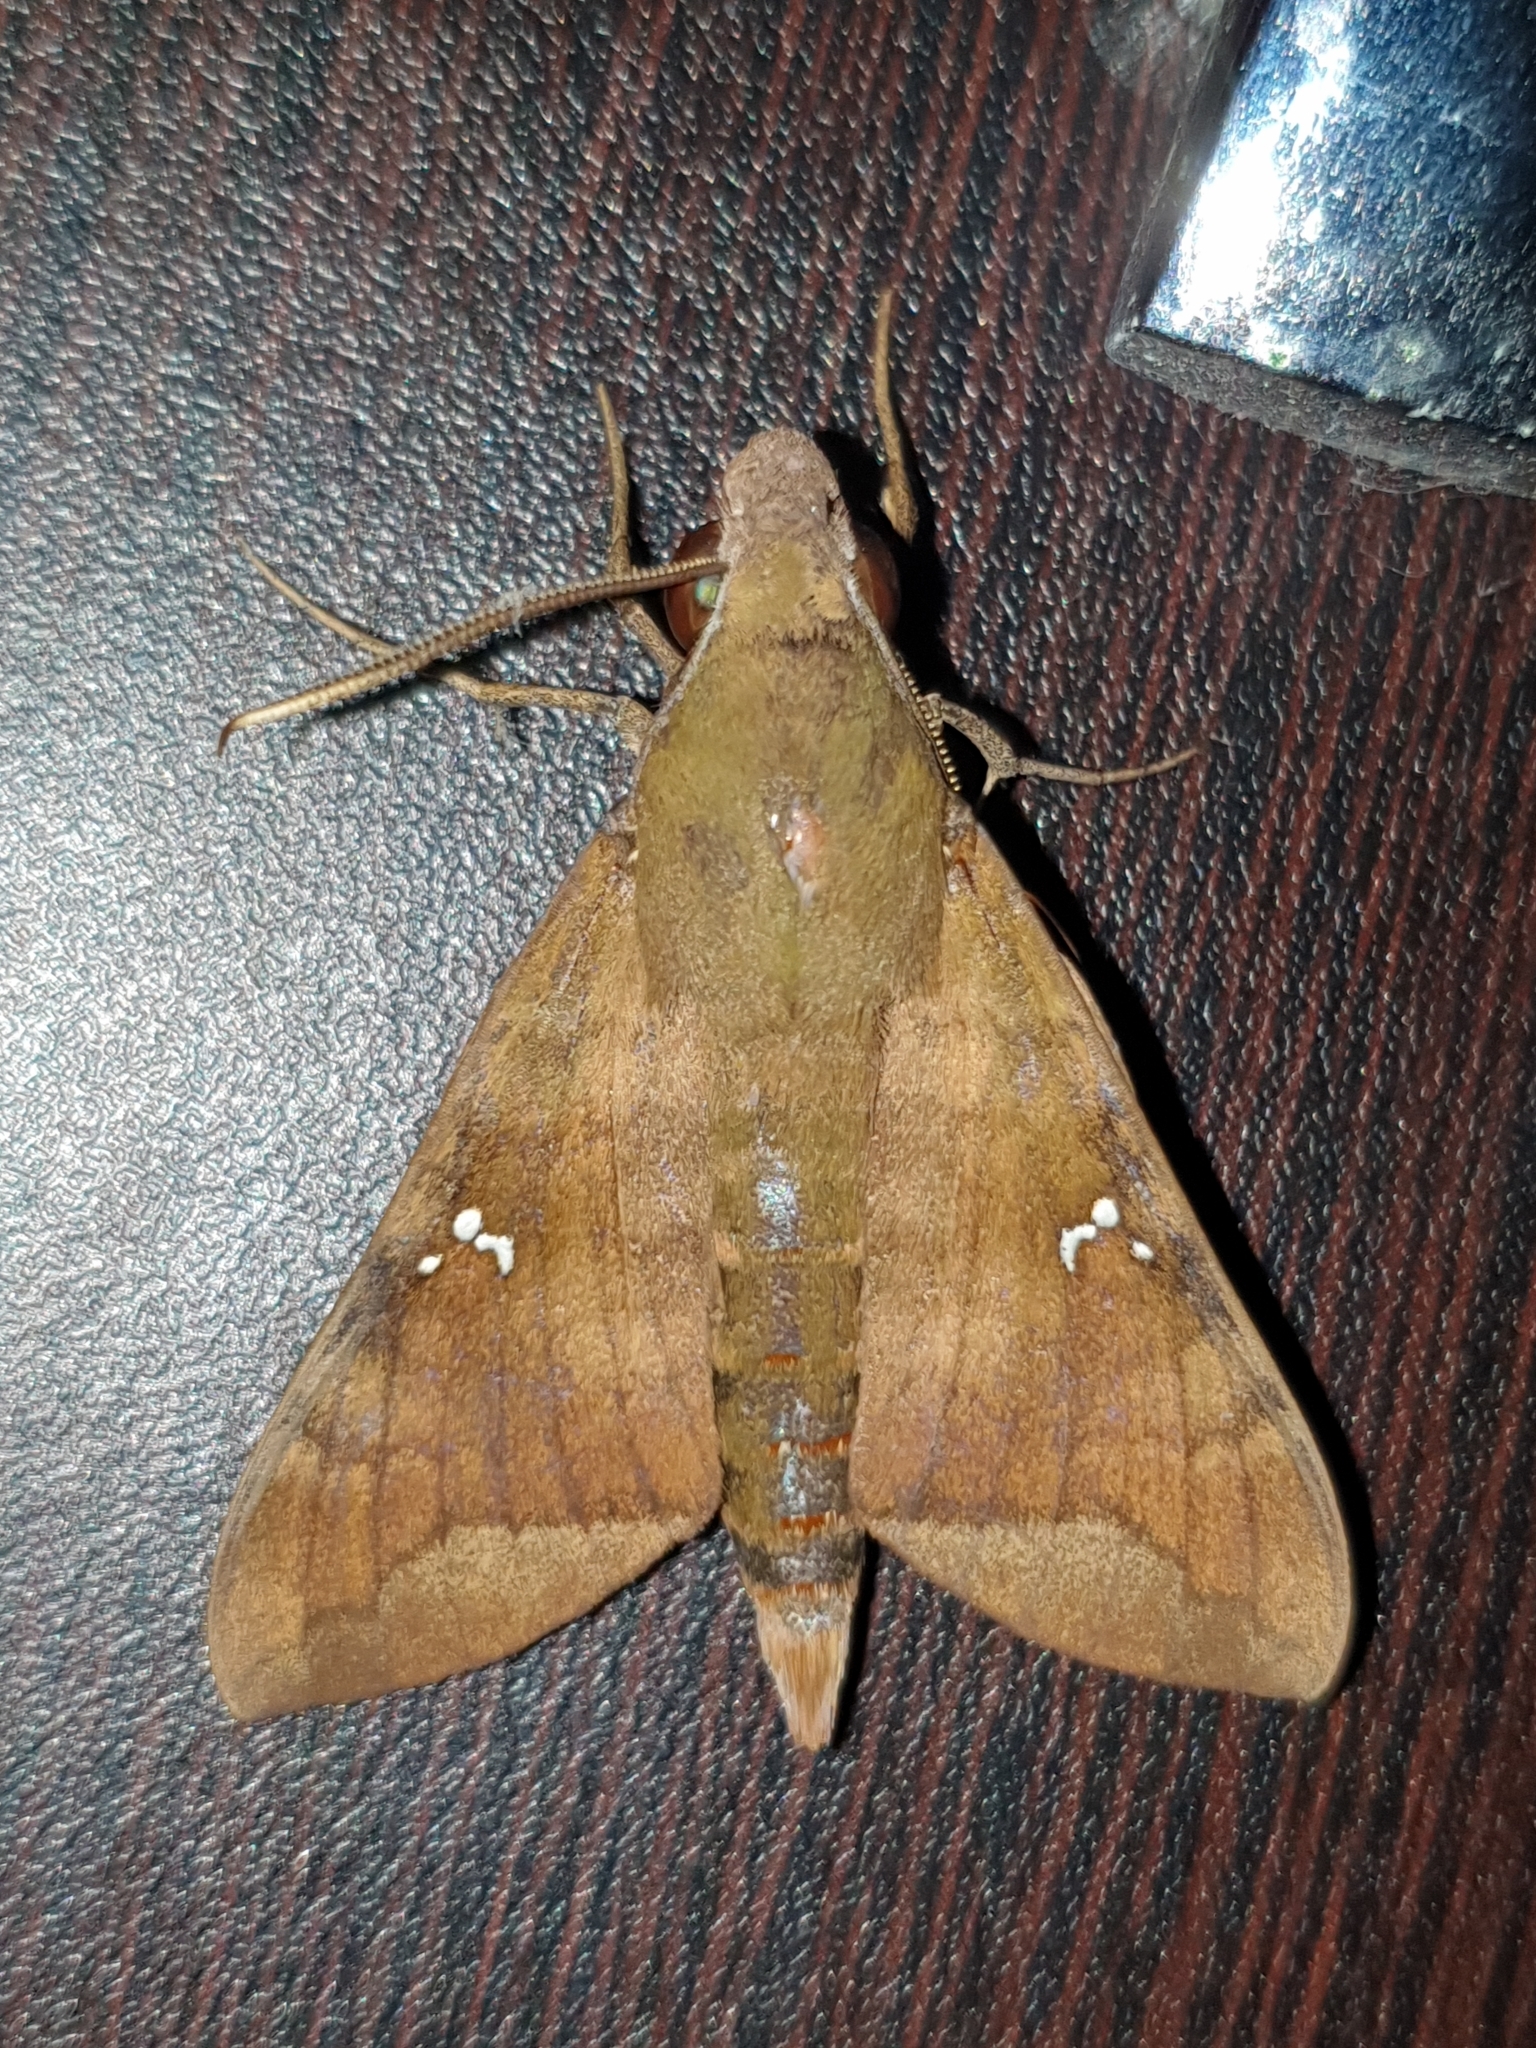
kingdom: Animalia
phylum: Arthropoda
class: Insecta
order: Lepidoptera
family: Sphingidae
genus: Nephele
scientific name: Nephele hespera
